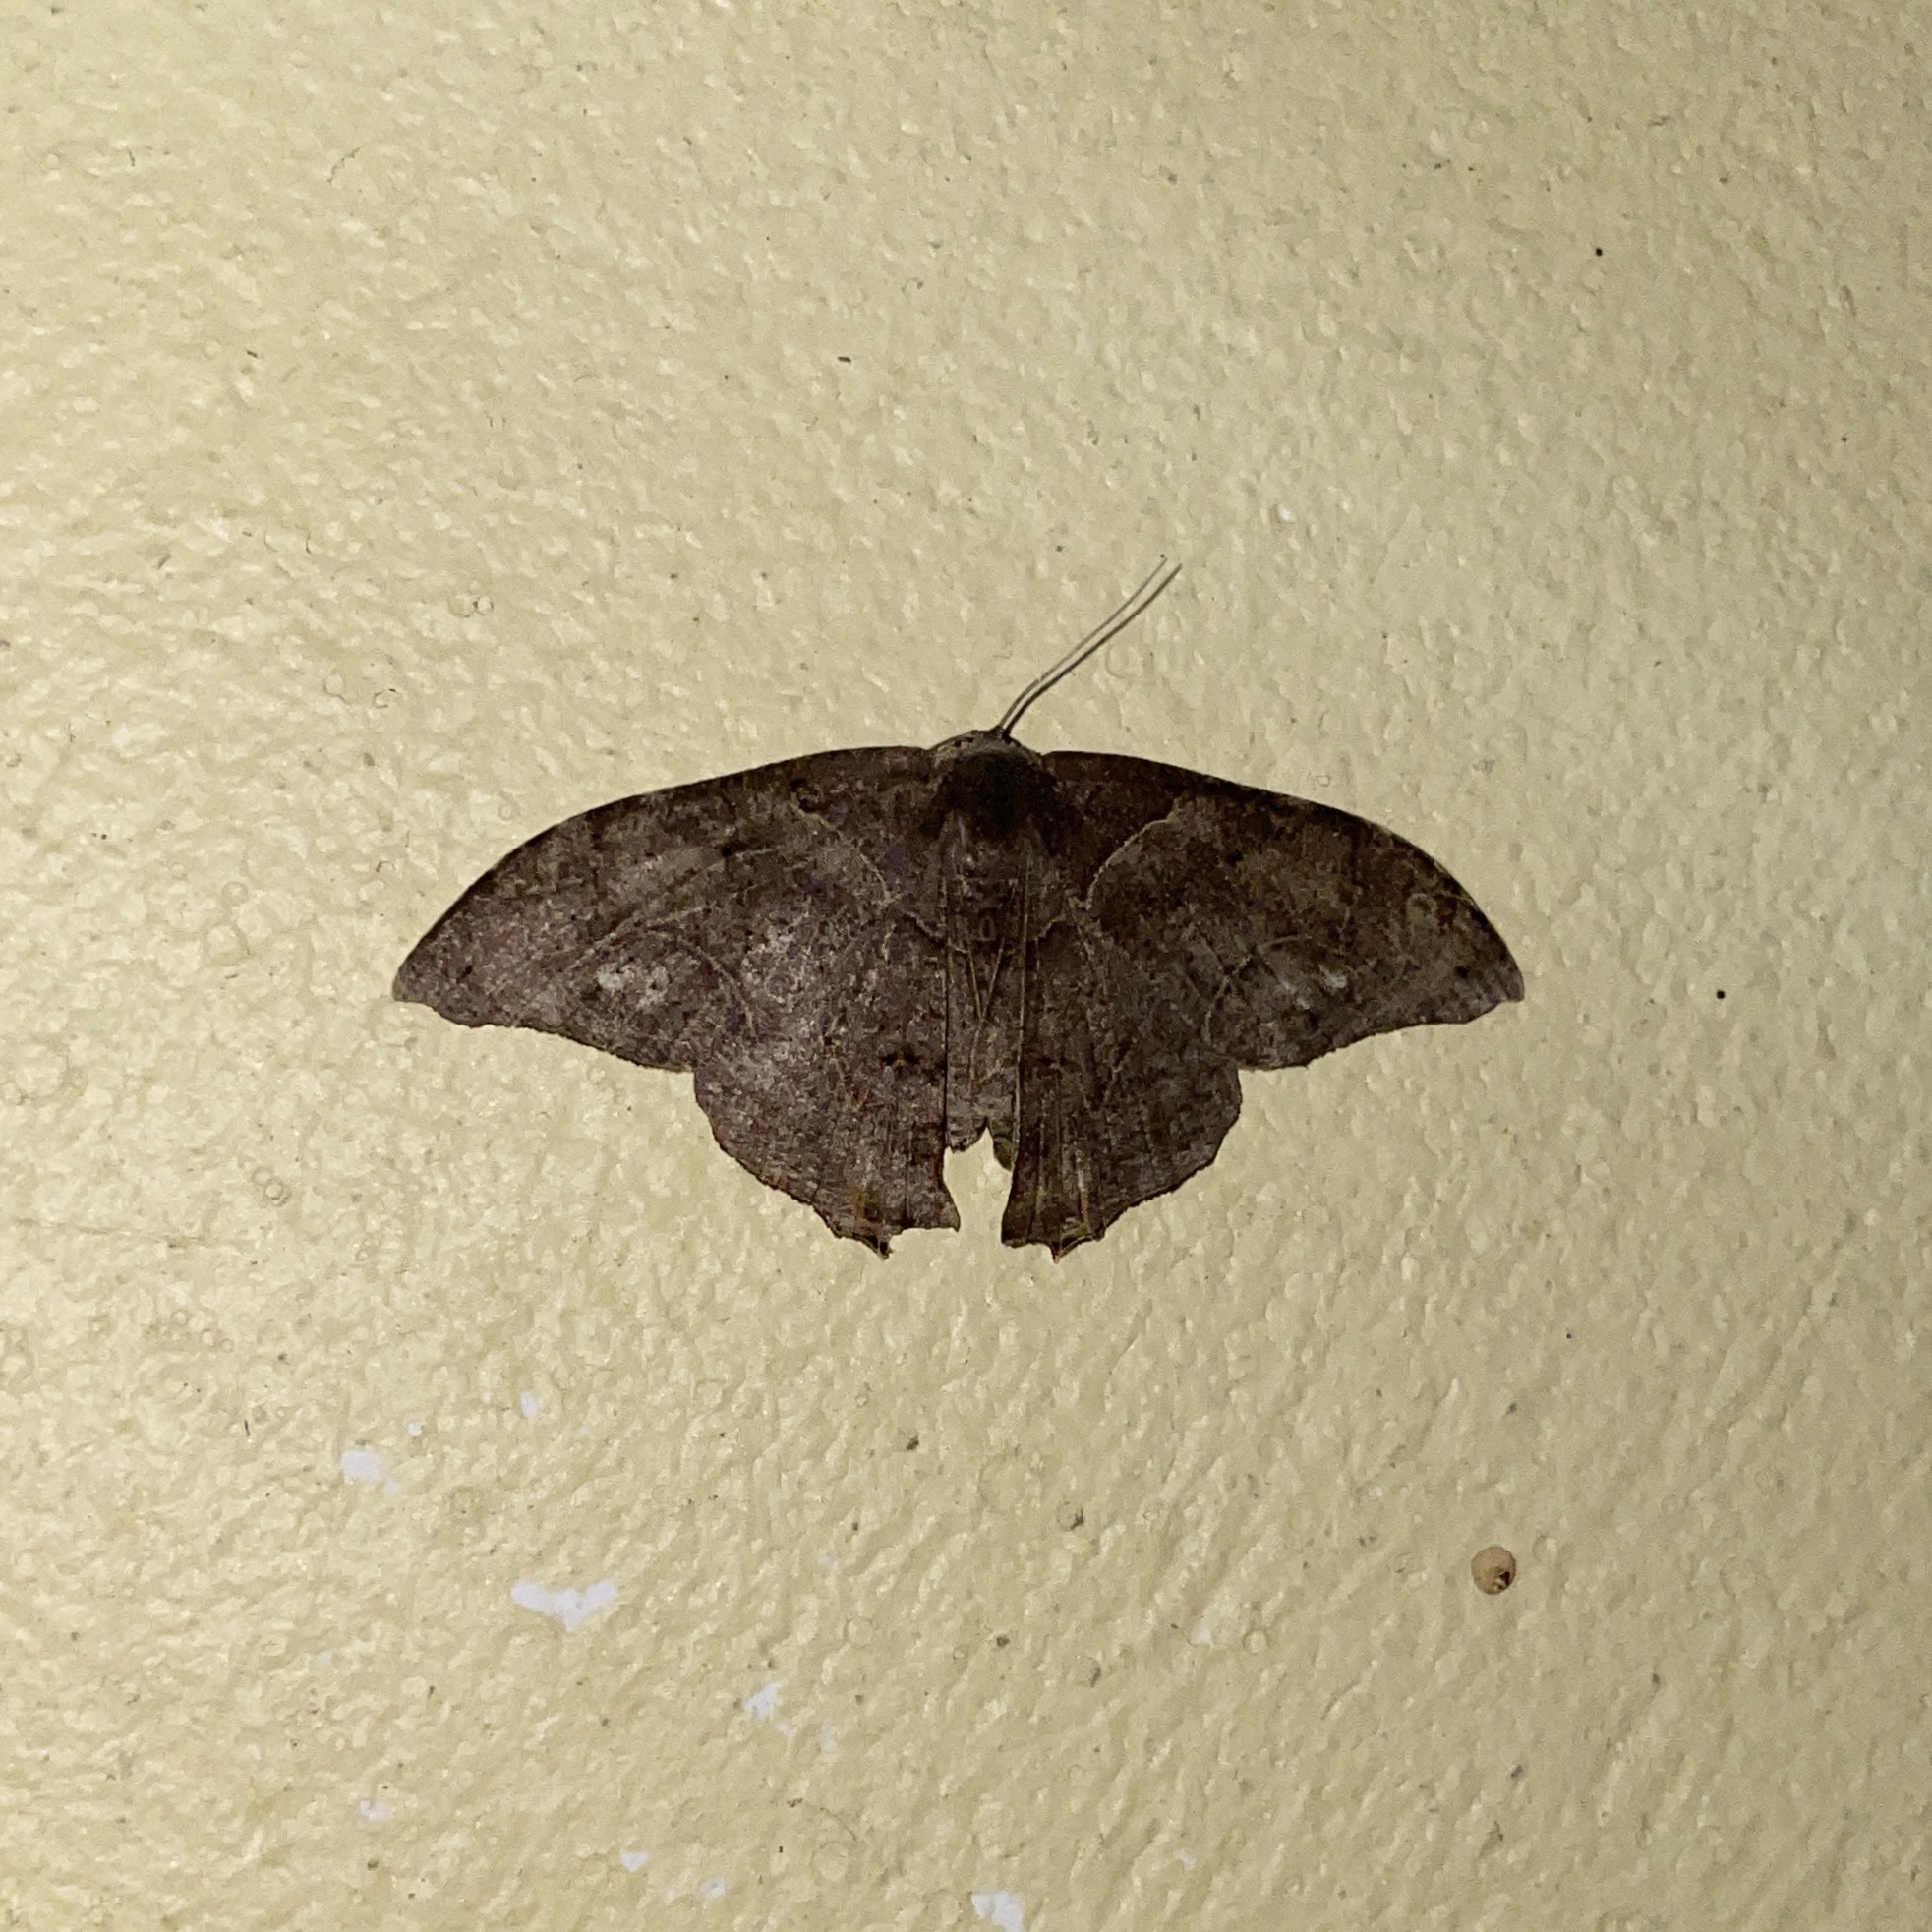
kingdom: Animalia
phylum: Arthropoda
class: Insecta
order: Lepidoptera
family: Uraniidae
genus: Syngria
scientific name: Syngria druidaria
